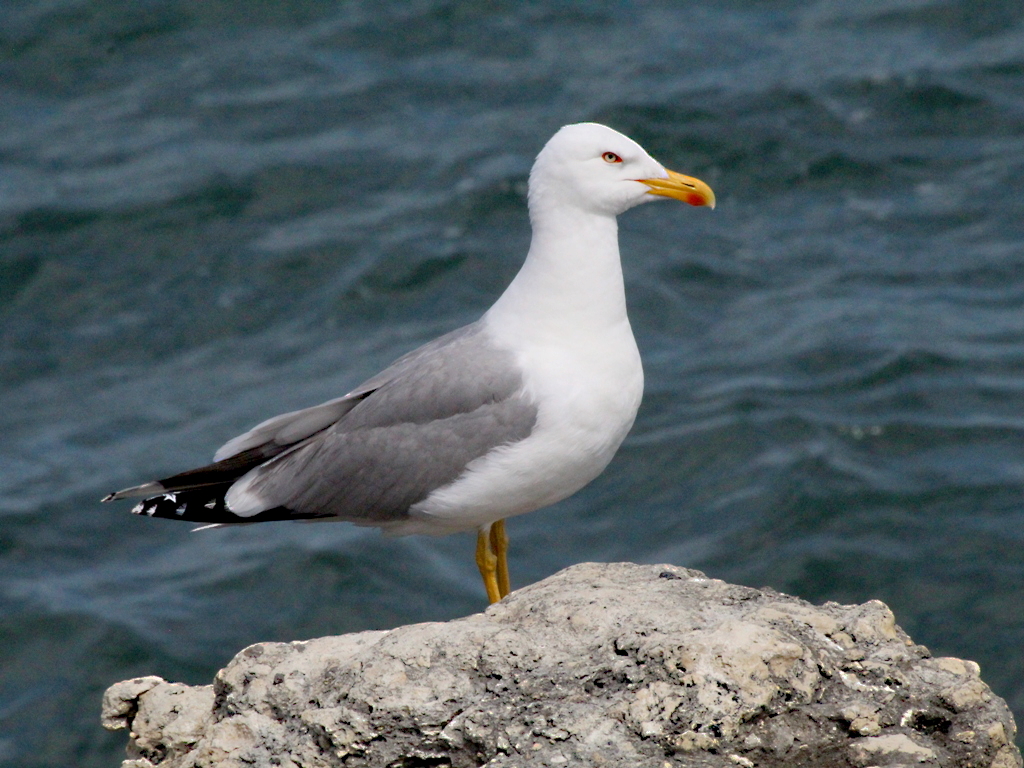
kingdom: Animalia
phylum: Chordata
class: Aves
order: Charadriiformes
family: Laridae
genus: Larus
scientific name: Larus michahellis
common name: Yellow-legged gull
